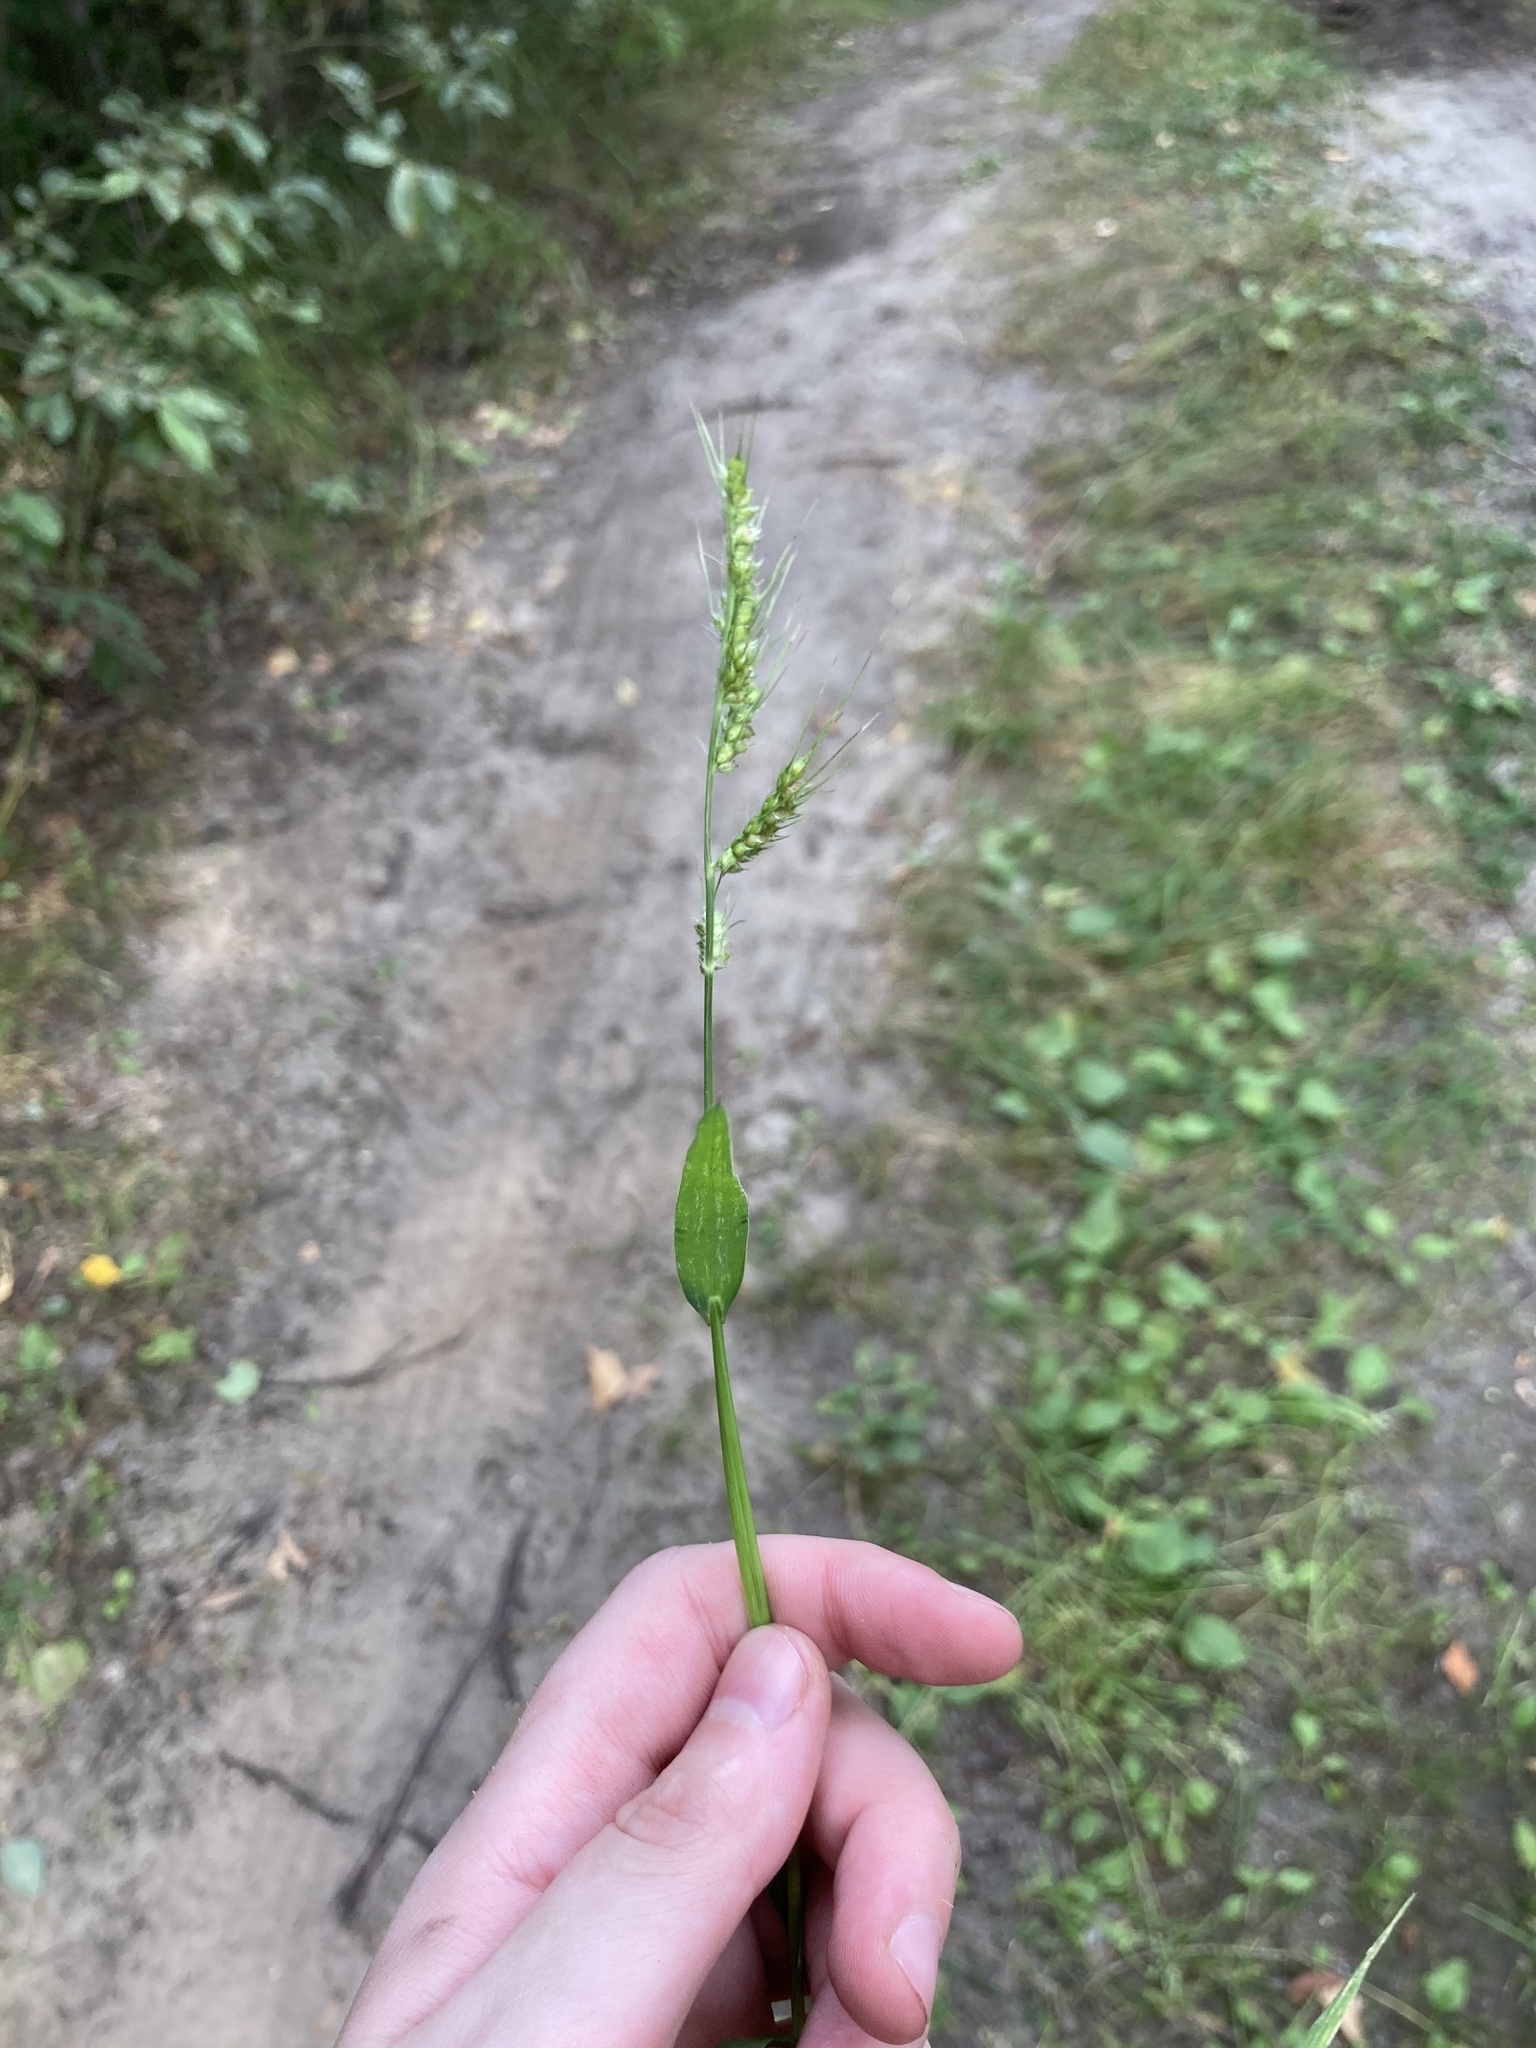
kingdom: Plantae
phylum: Tracheophyta
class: Liliopsida
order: Poales
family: Poaceae
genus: Echinochloa
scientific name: Echinochloa crus-galli
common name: Cockspur
